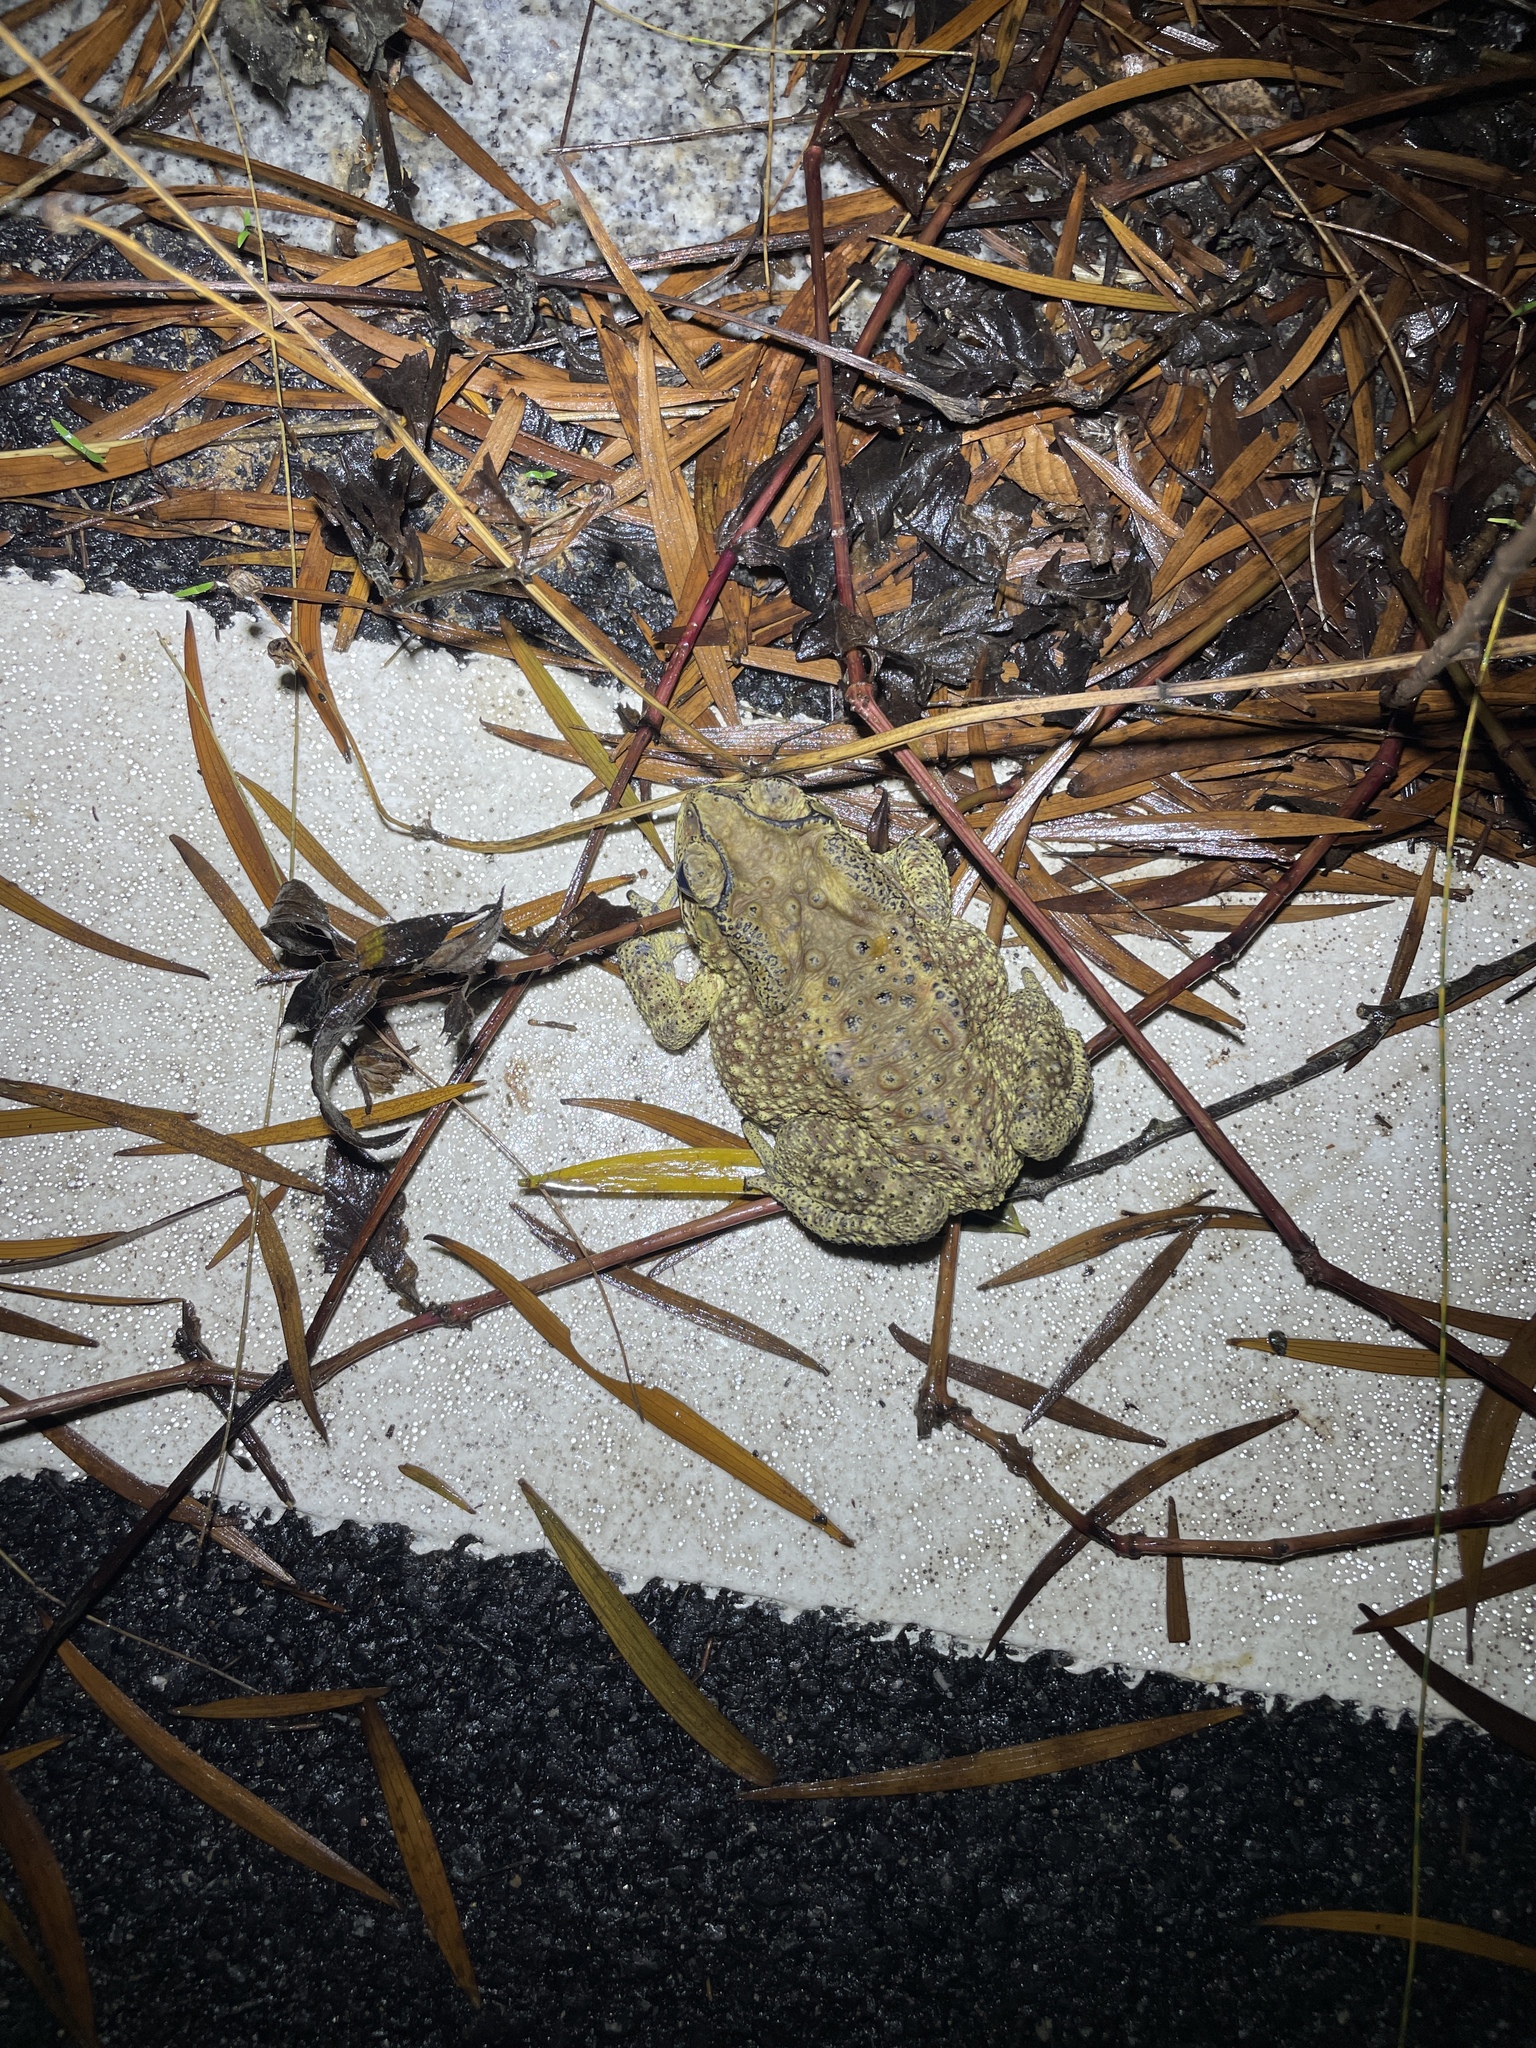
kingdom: Animalia
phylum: Chordata
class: Amphibia
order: Anura
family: Bufonidae
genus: Duttaphrynus
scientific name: Duttaphrynus melanostictus
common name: Common sunda toad
